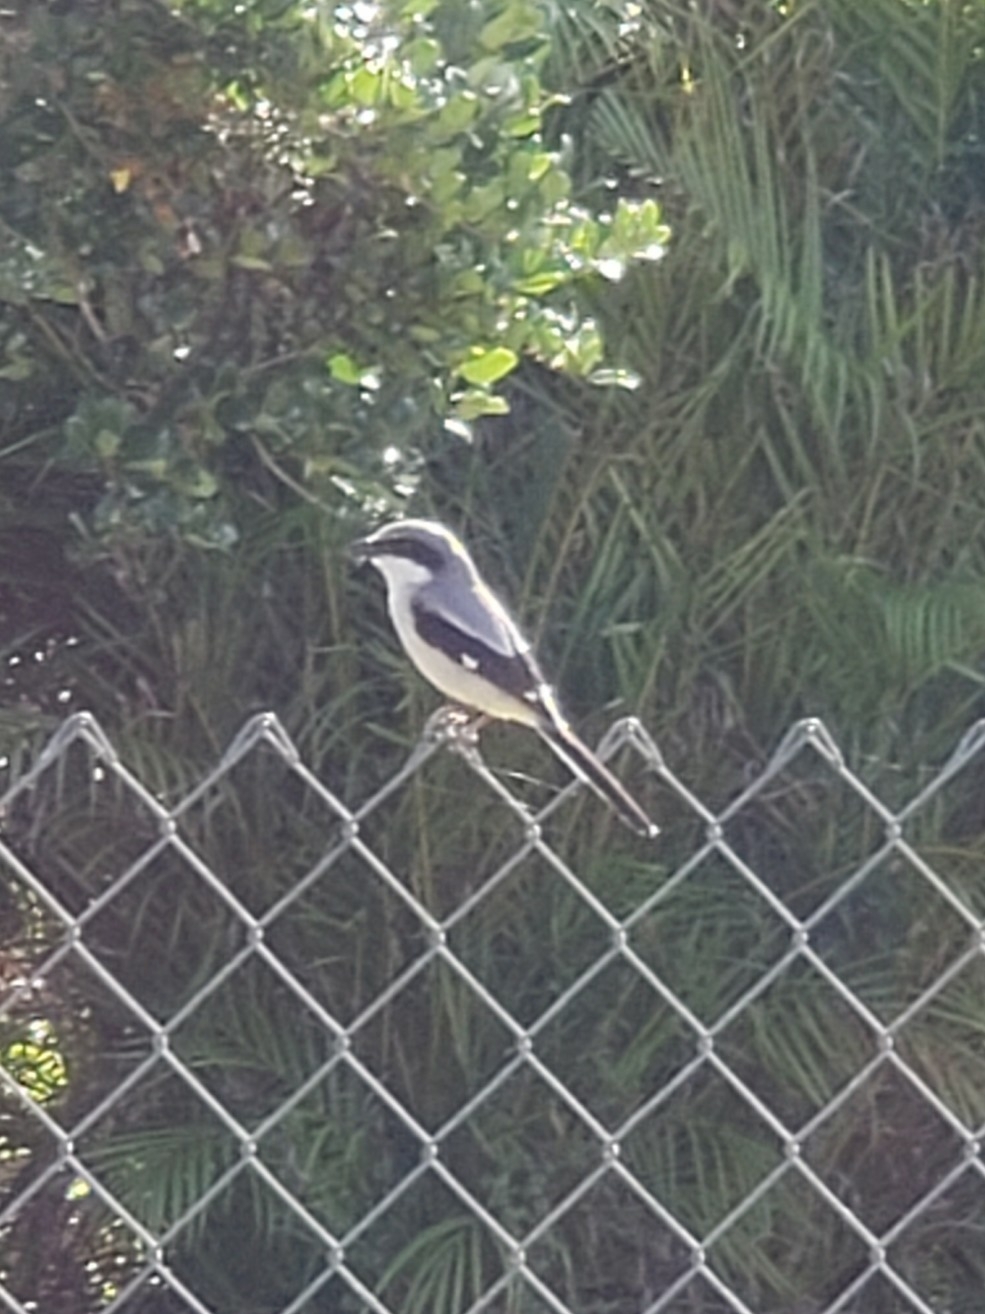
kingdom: Animalia
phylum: Chordata
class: Aves
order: Passeriformes
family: Laniidae
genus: Lanius
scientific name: Lanius ludovicianus
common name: Loggerhead shrike
